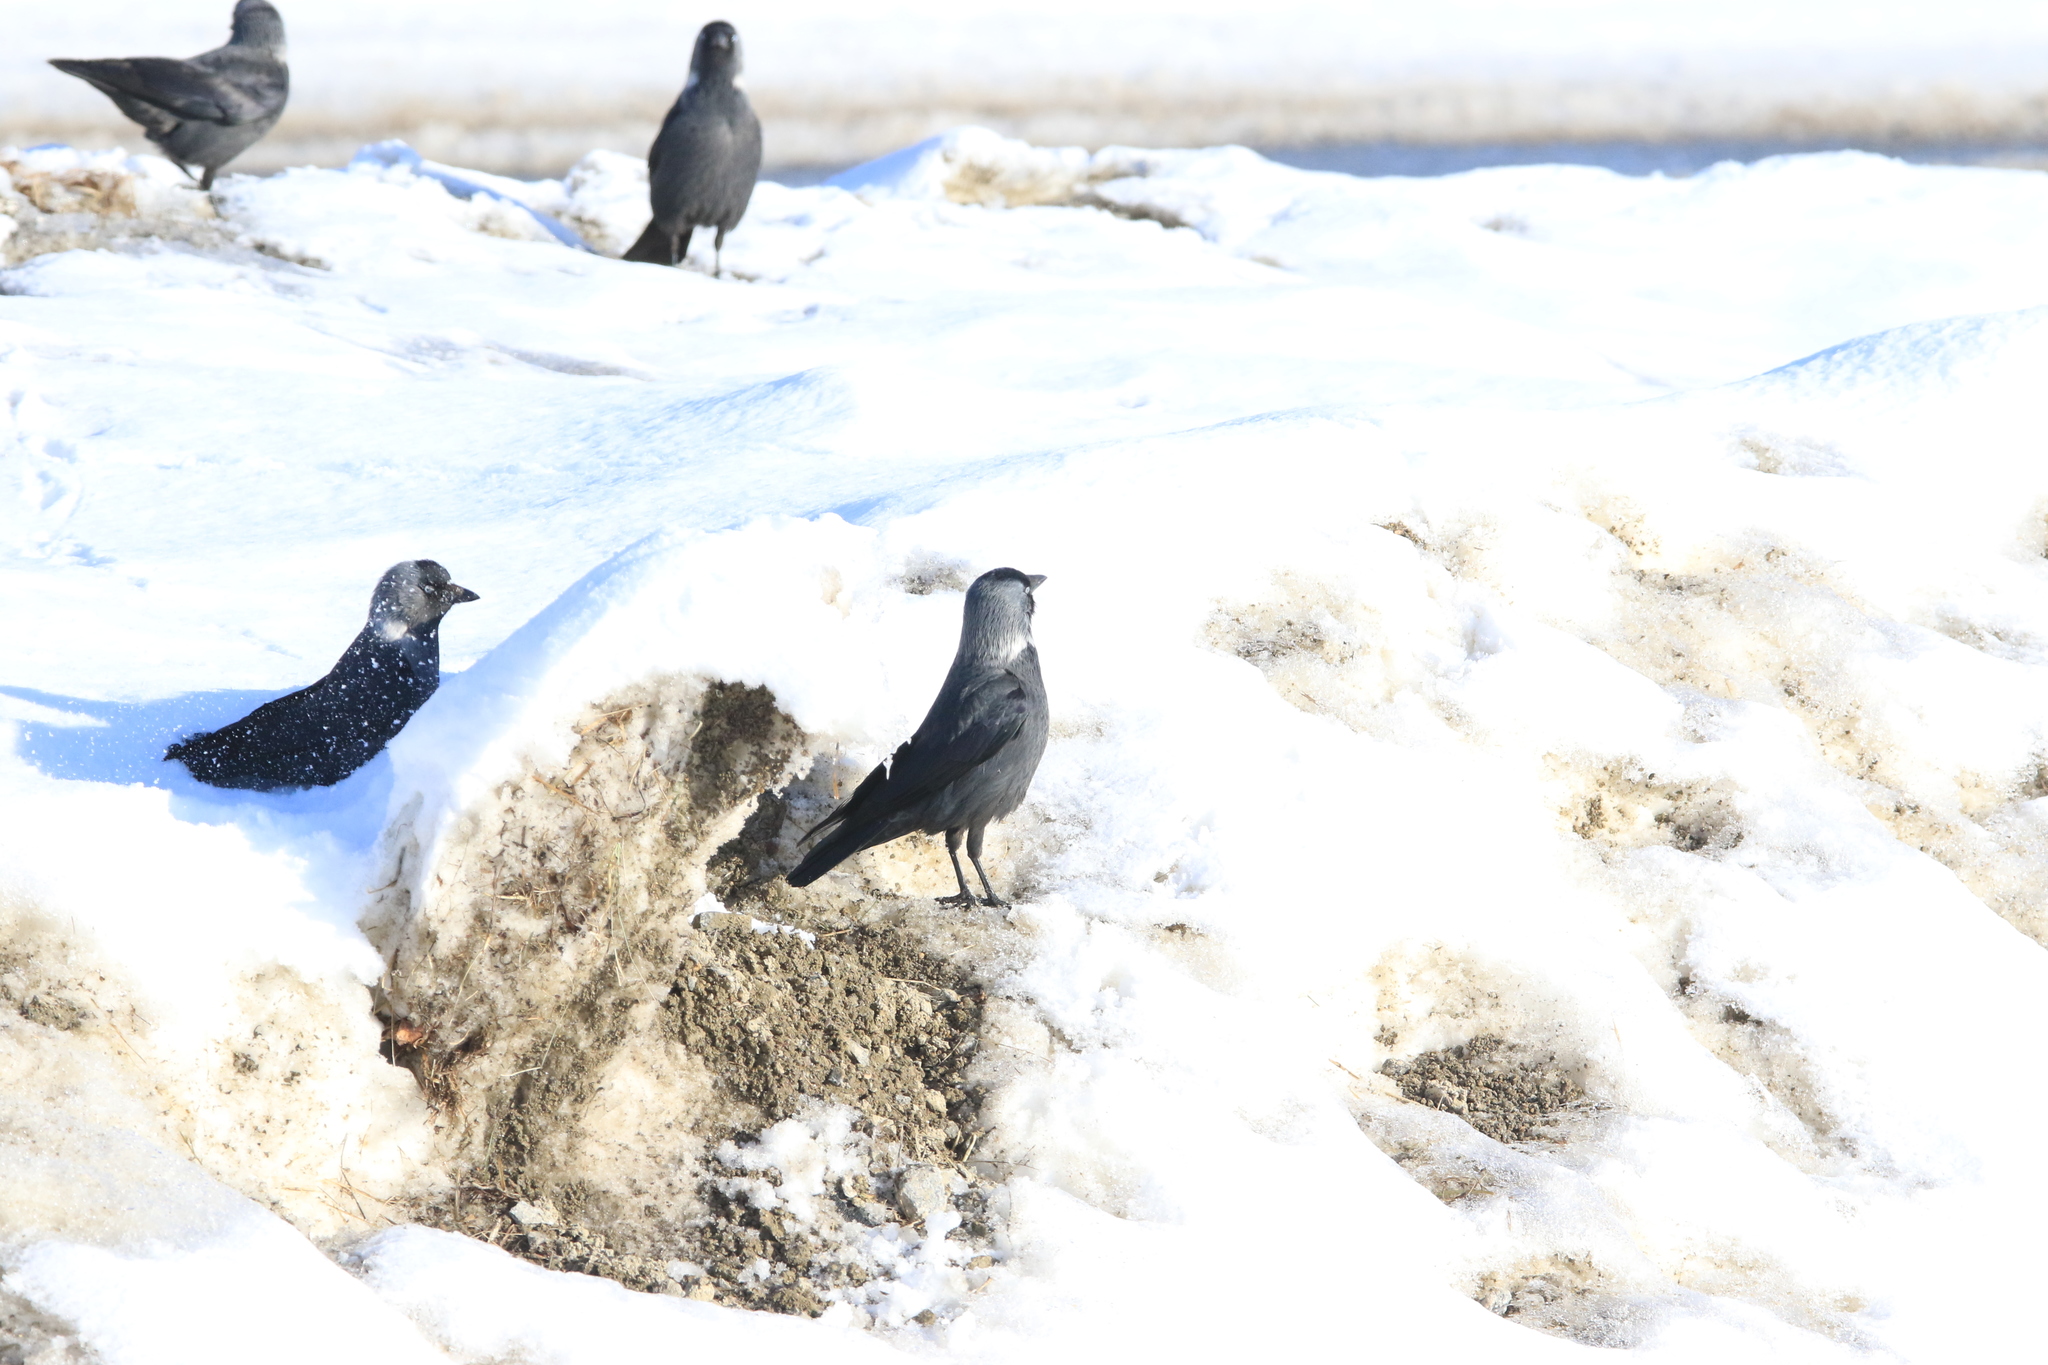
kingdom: Animalia
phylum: Chordata
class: Aves
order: Passeriformes
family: Corvidae
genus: Coloeus
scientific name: Coloeus monedula
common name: Western jackdaw
